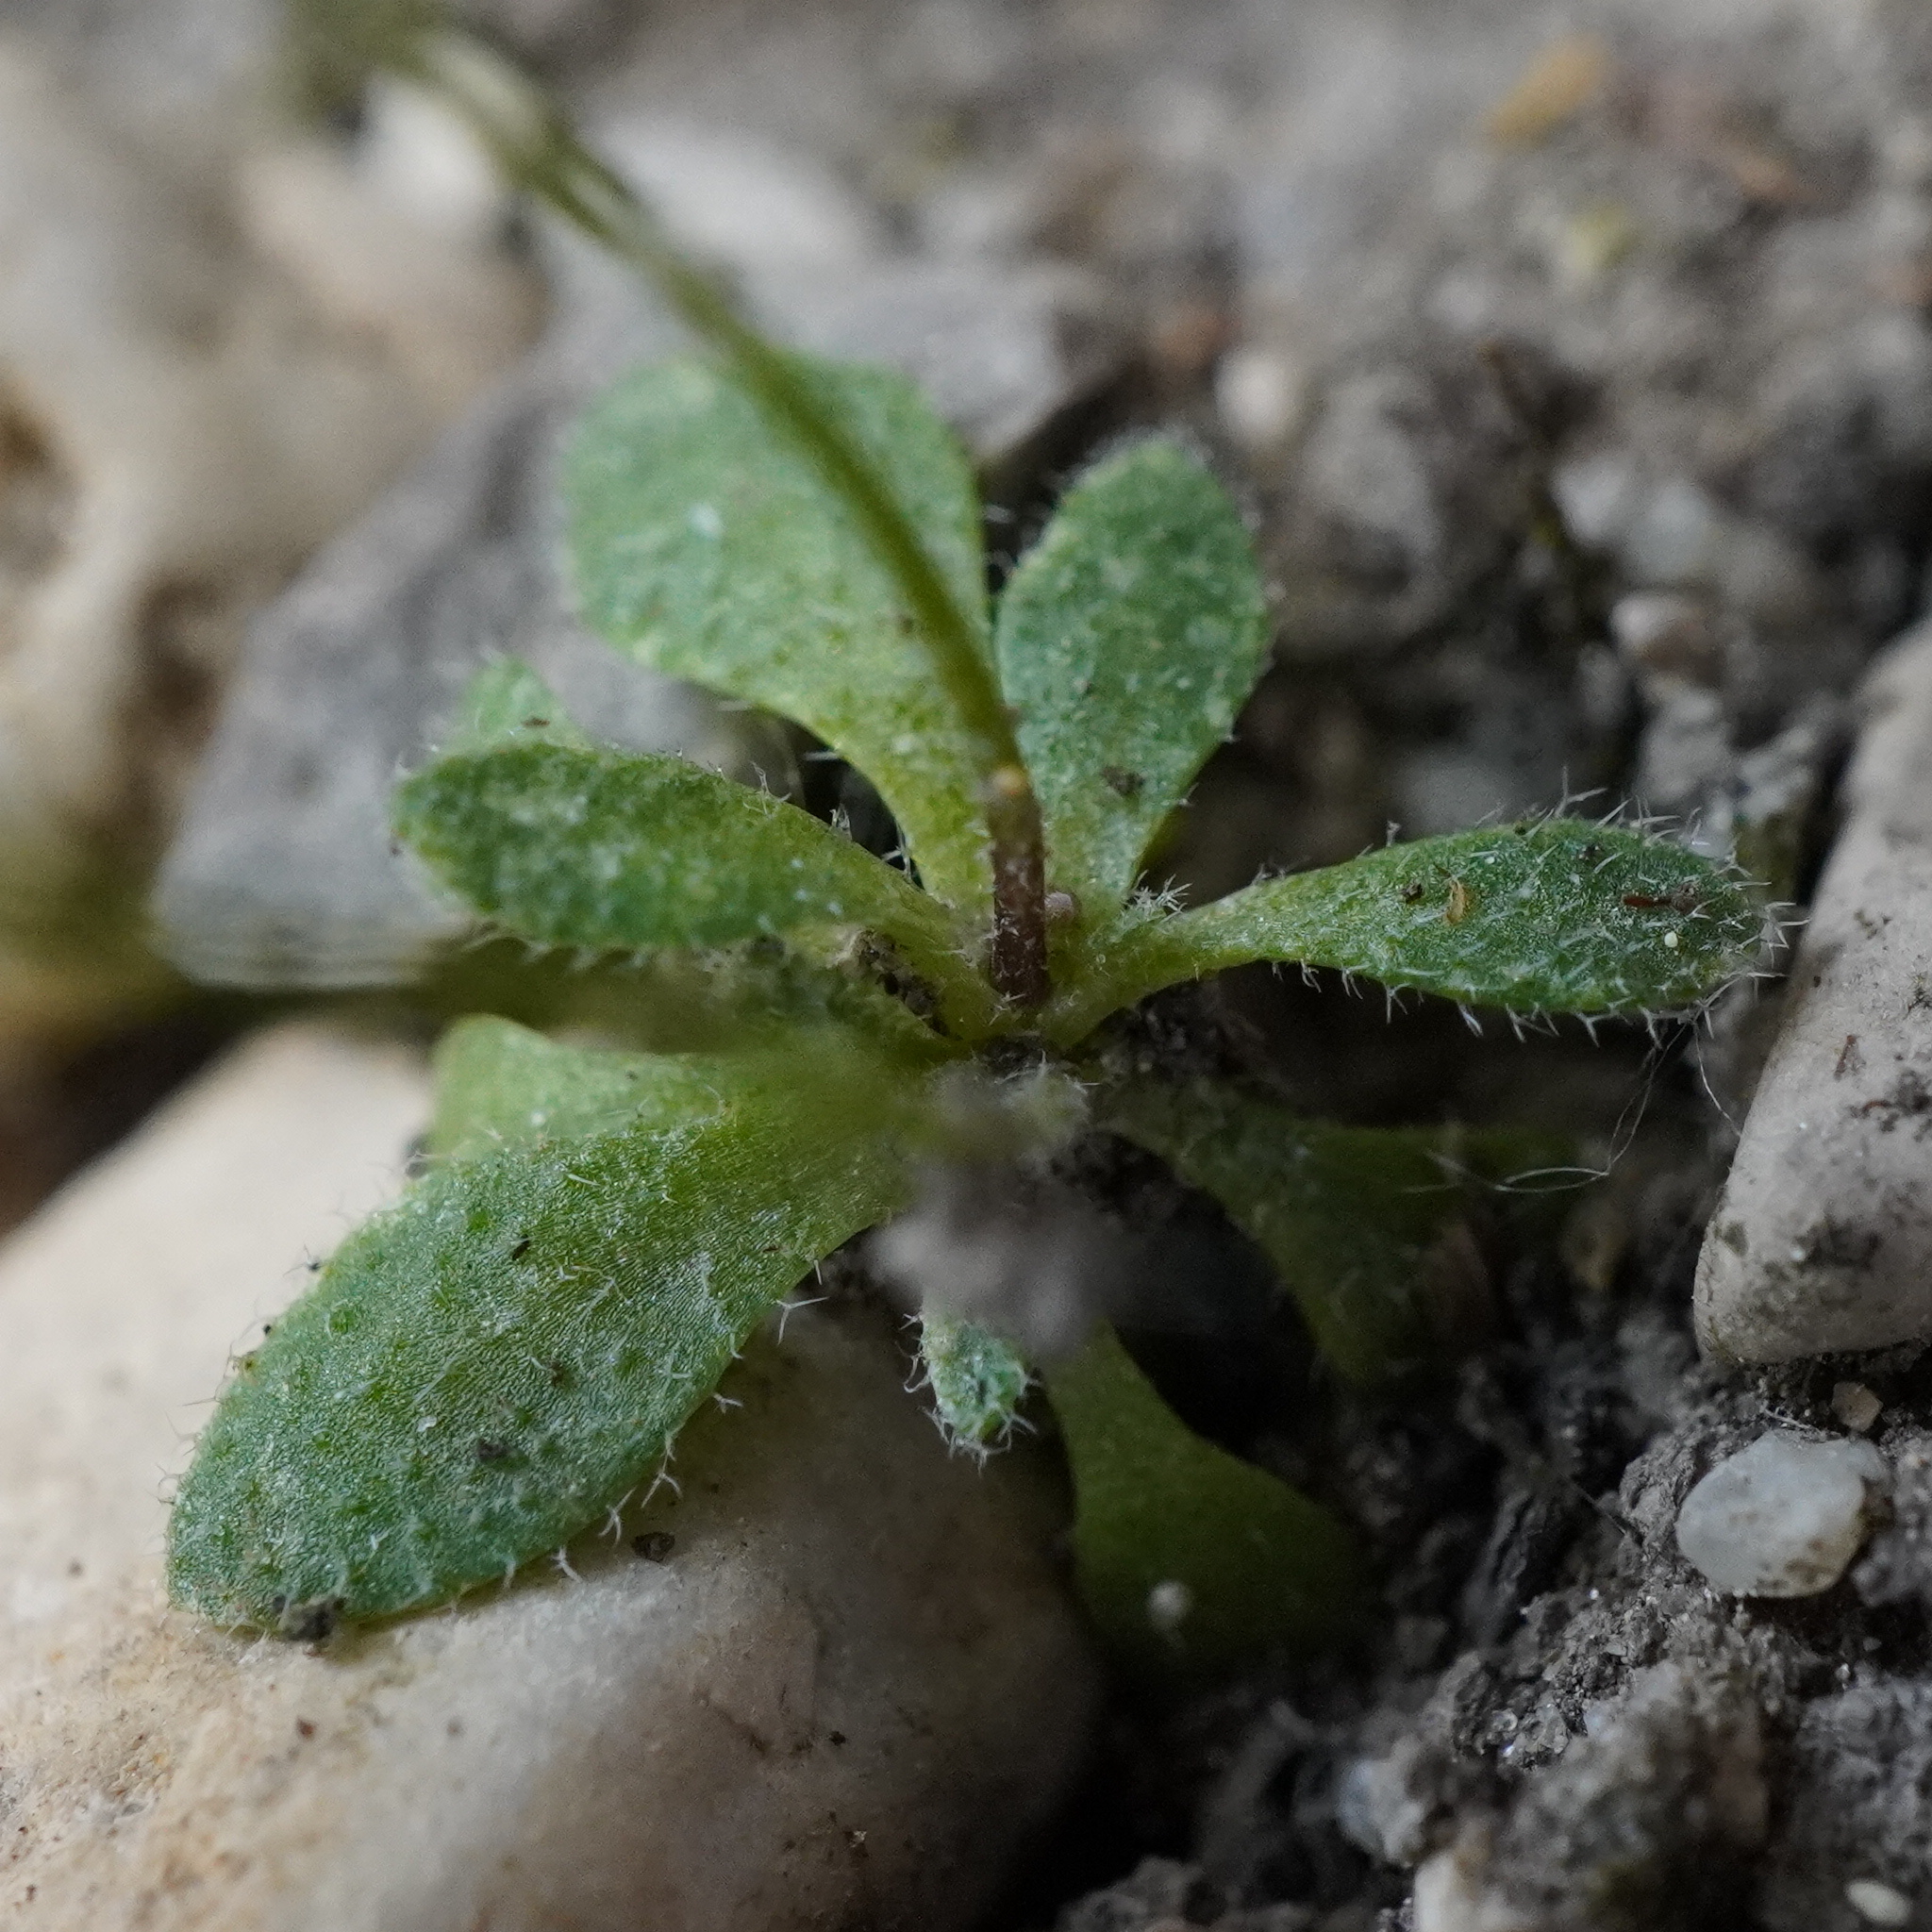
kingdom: Plantae
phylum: Tracheophyta
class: Magnoliopsida
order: Brassicales
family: Brassicaceae
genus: Draba
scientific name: Draba verna
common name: Spring draba
